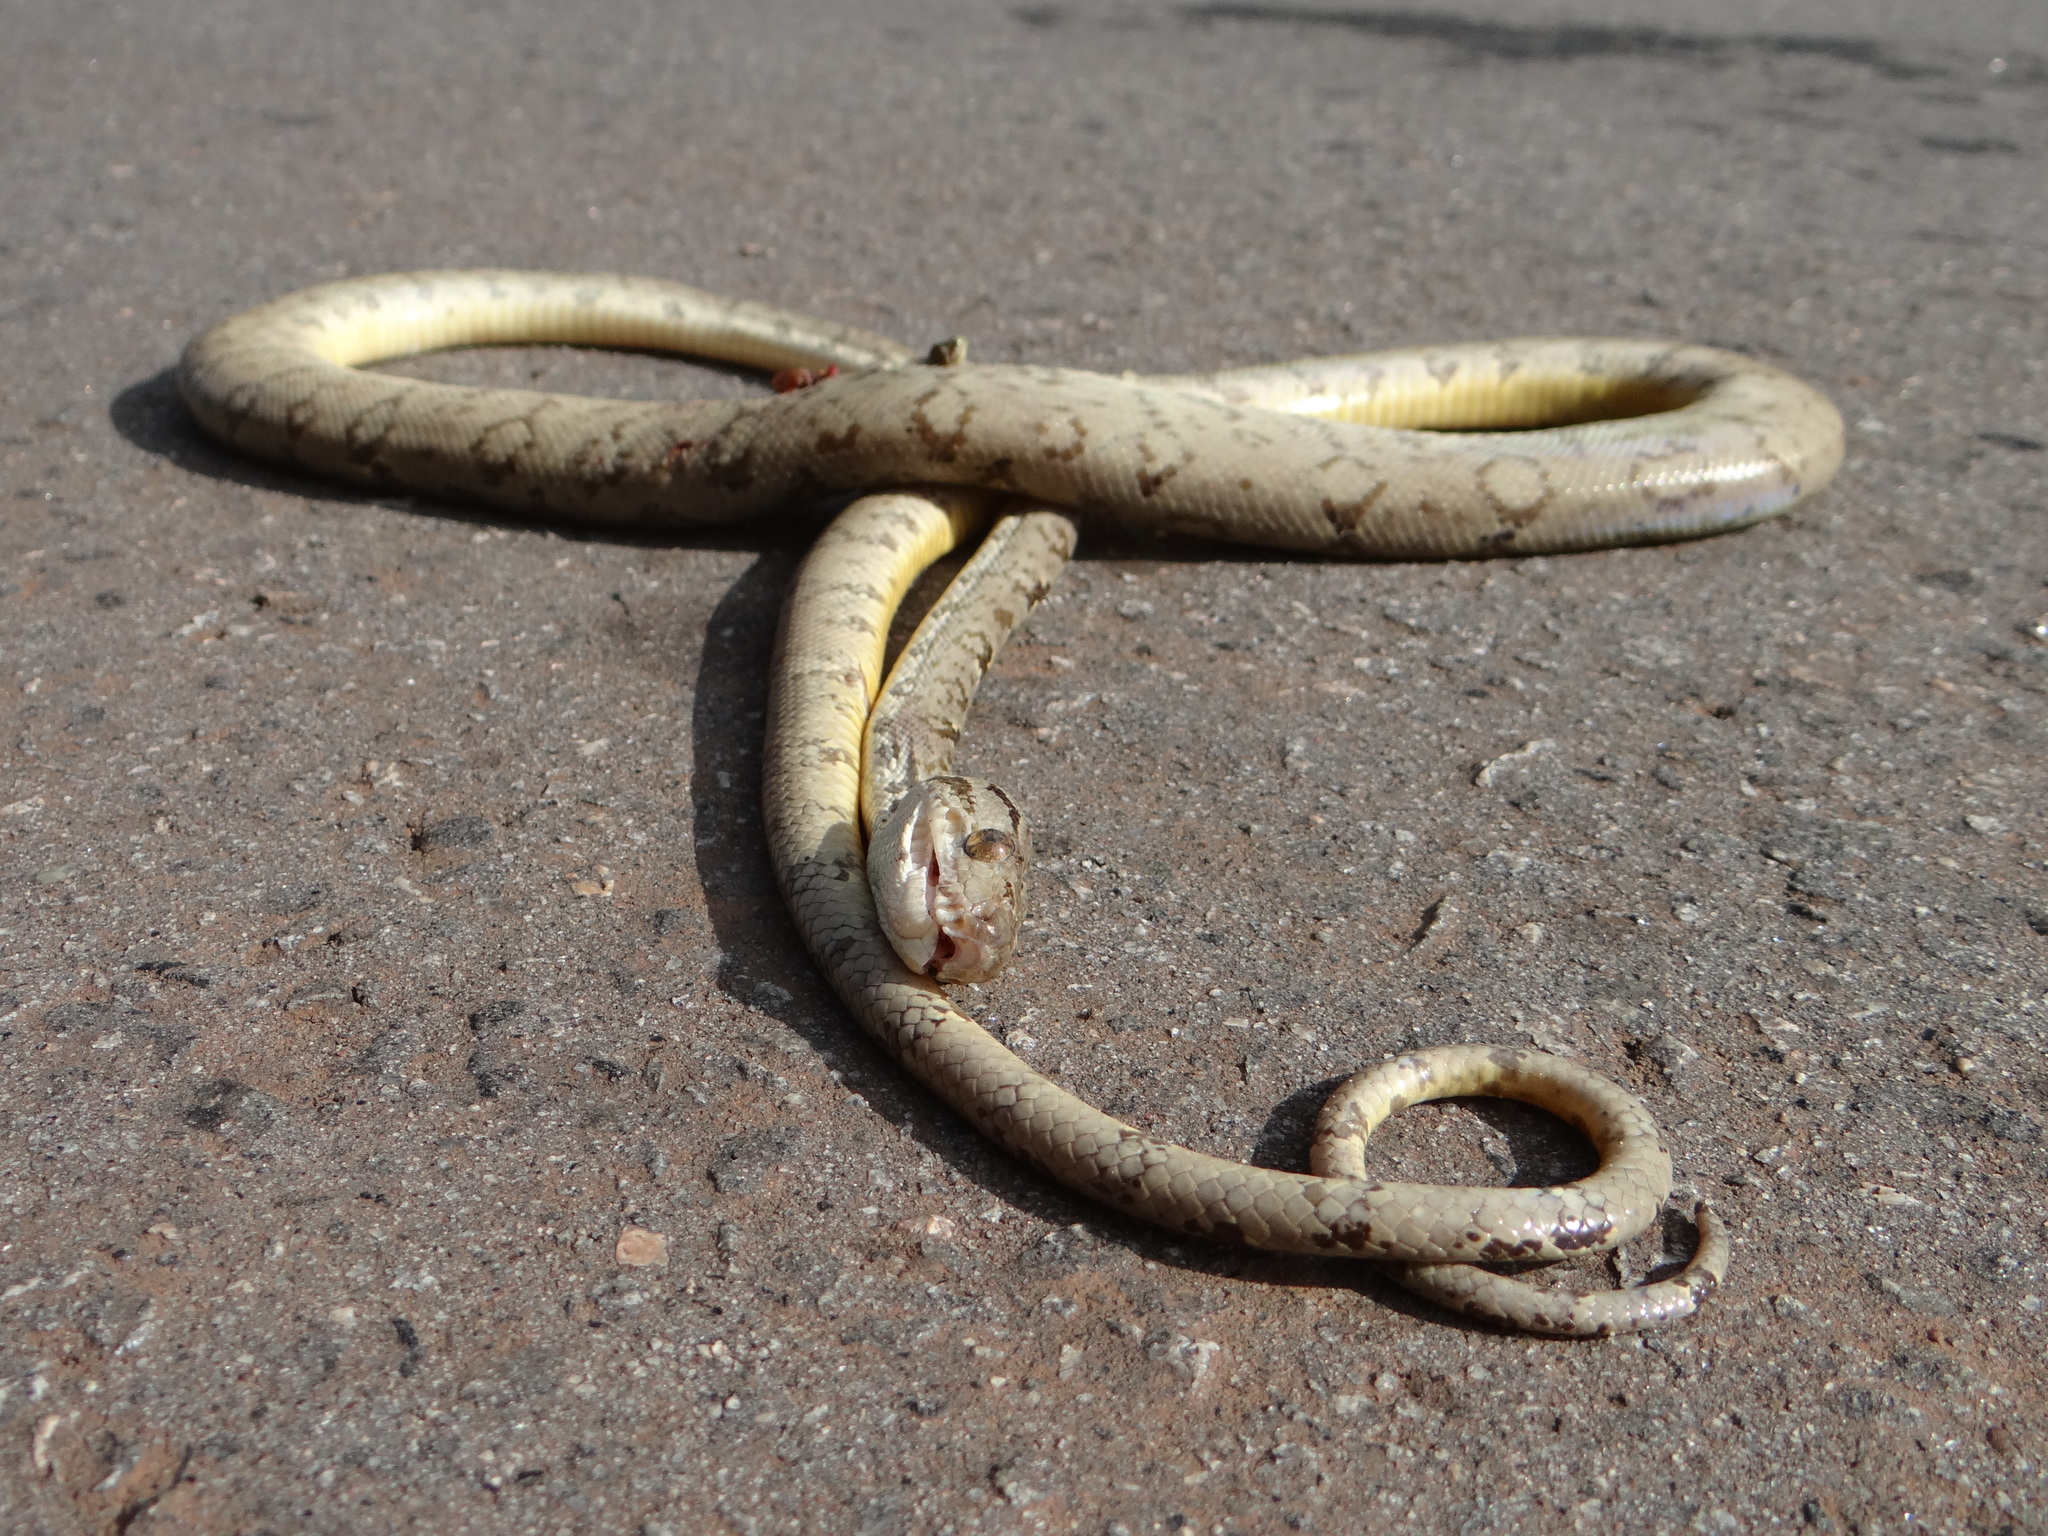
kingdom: Animalia
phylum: Chordata
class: Squamata
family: Boidae
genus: Corallus
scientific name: Corallus hortulana
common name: Garden tree boa
